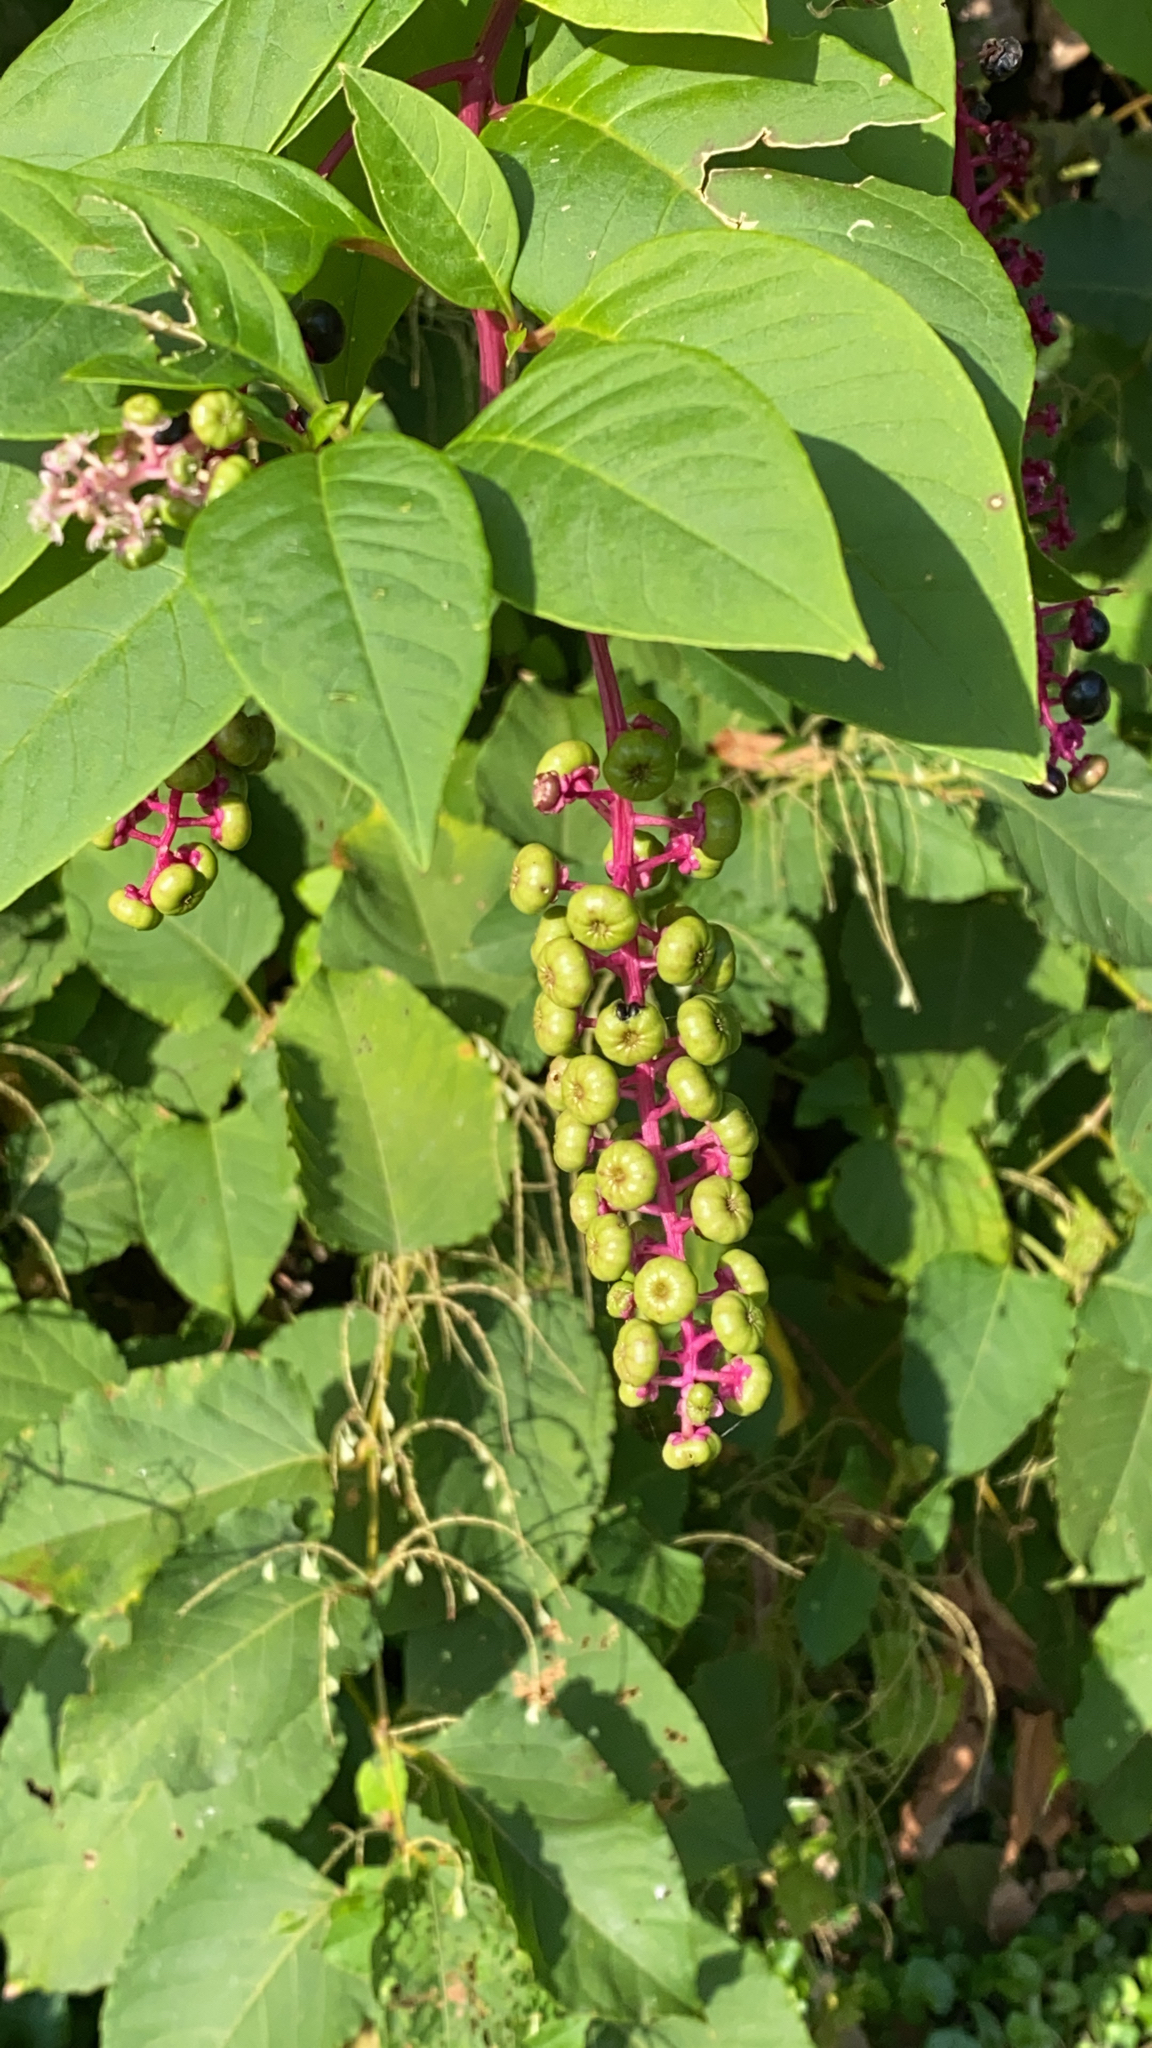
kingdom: Plantae
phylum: Tracheophyta
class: Magnoliopsida
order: Caryophyllales
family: Phytolaccaceae
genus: Phytolacca
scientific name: Phytolacca americana
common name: American pokeweed
